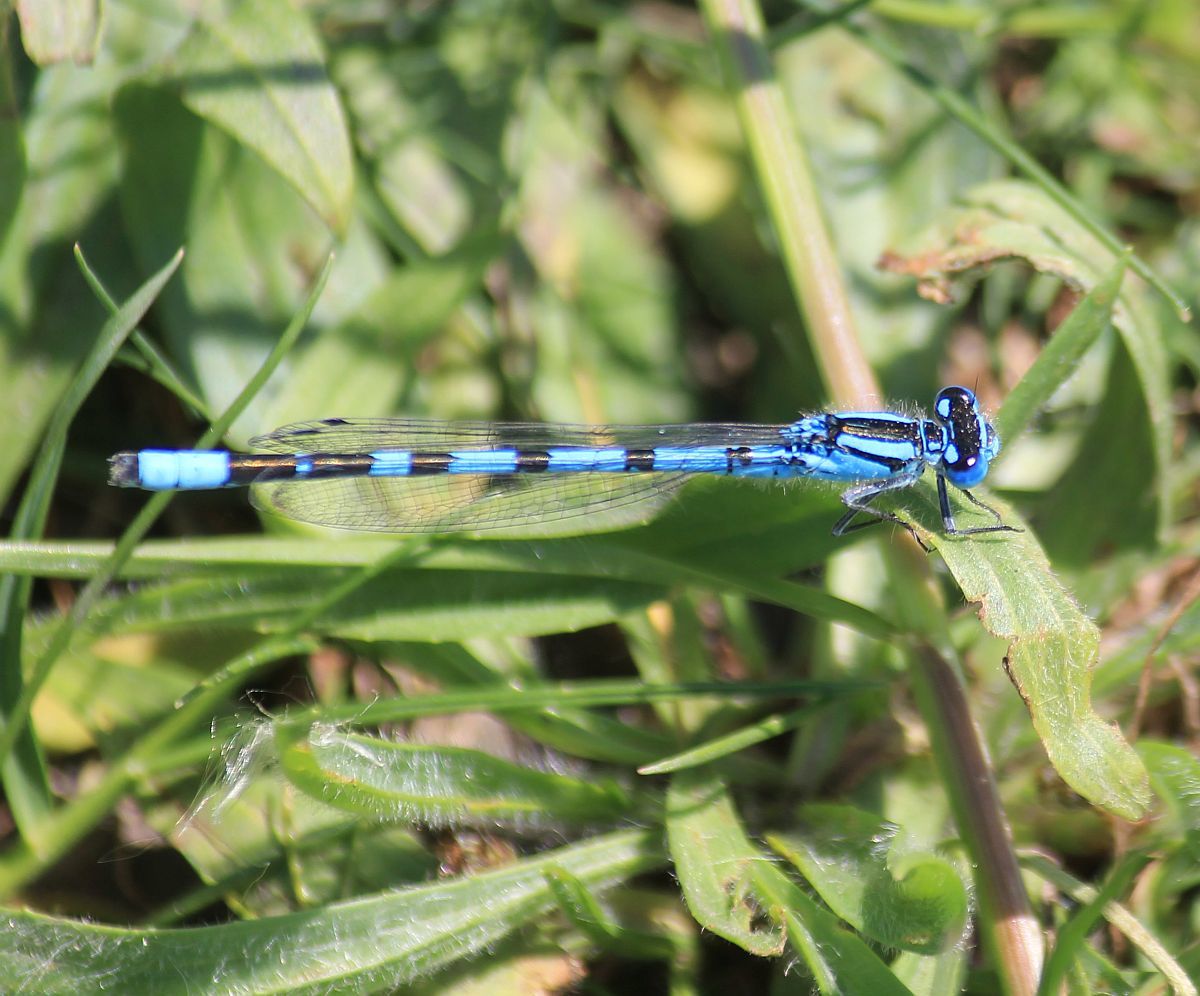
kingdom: Animalia
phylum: Arthropoda
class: Insecta
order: Odonata
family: Coenagrionidae
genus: Enallagma
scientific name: Enallagma cyathigerum
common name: Common blue damselfly
